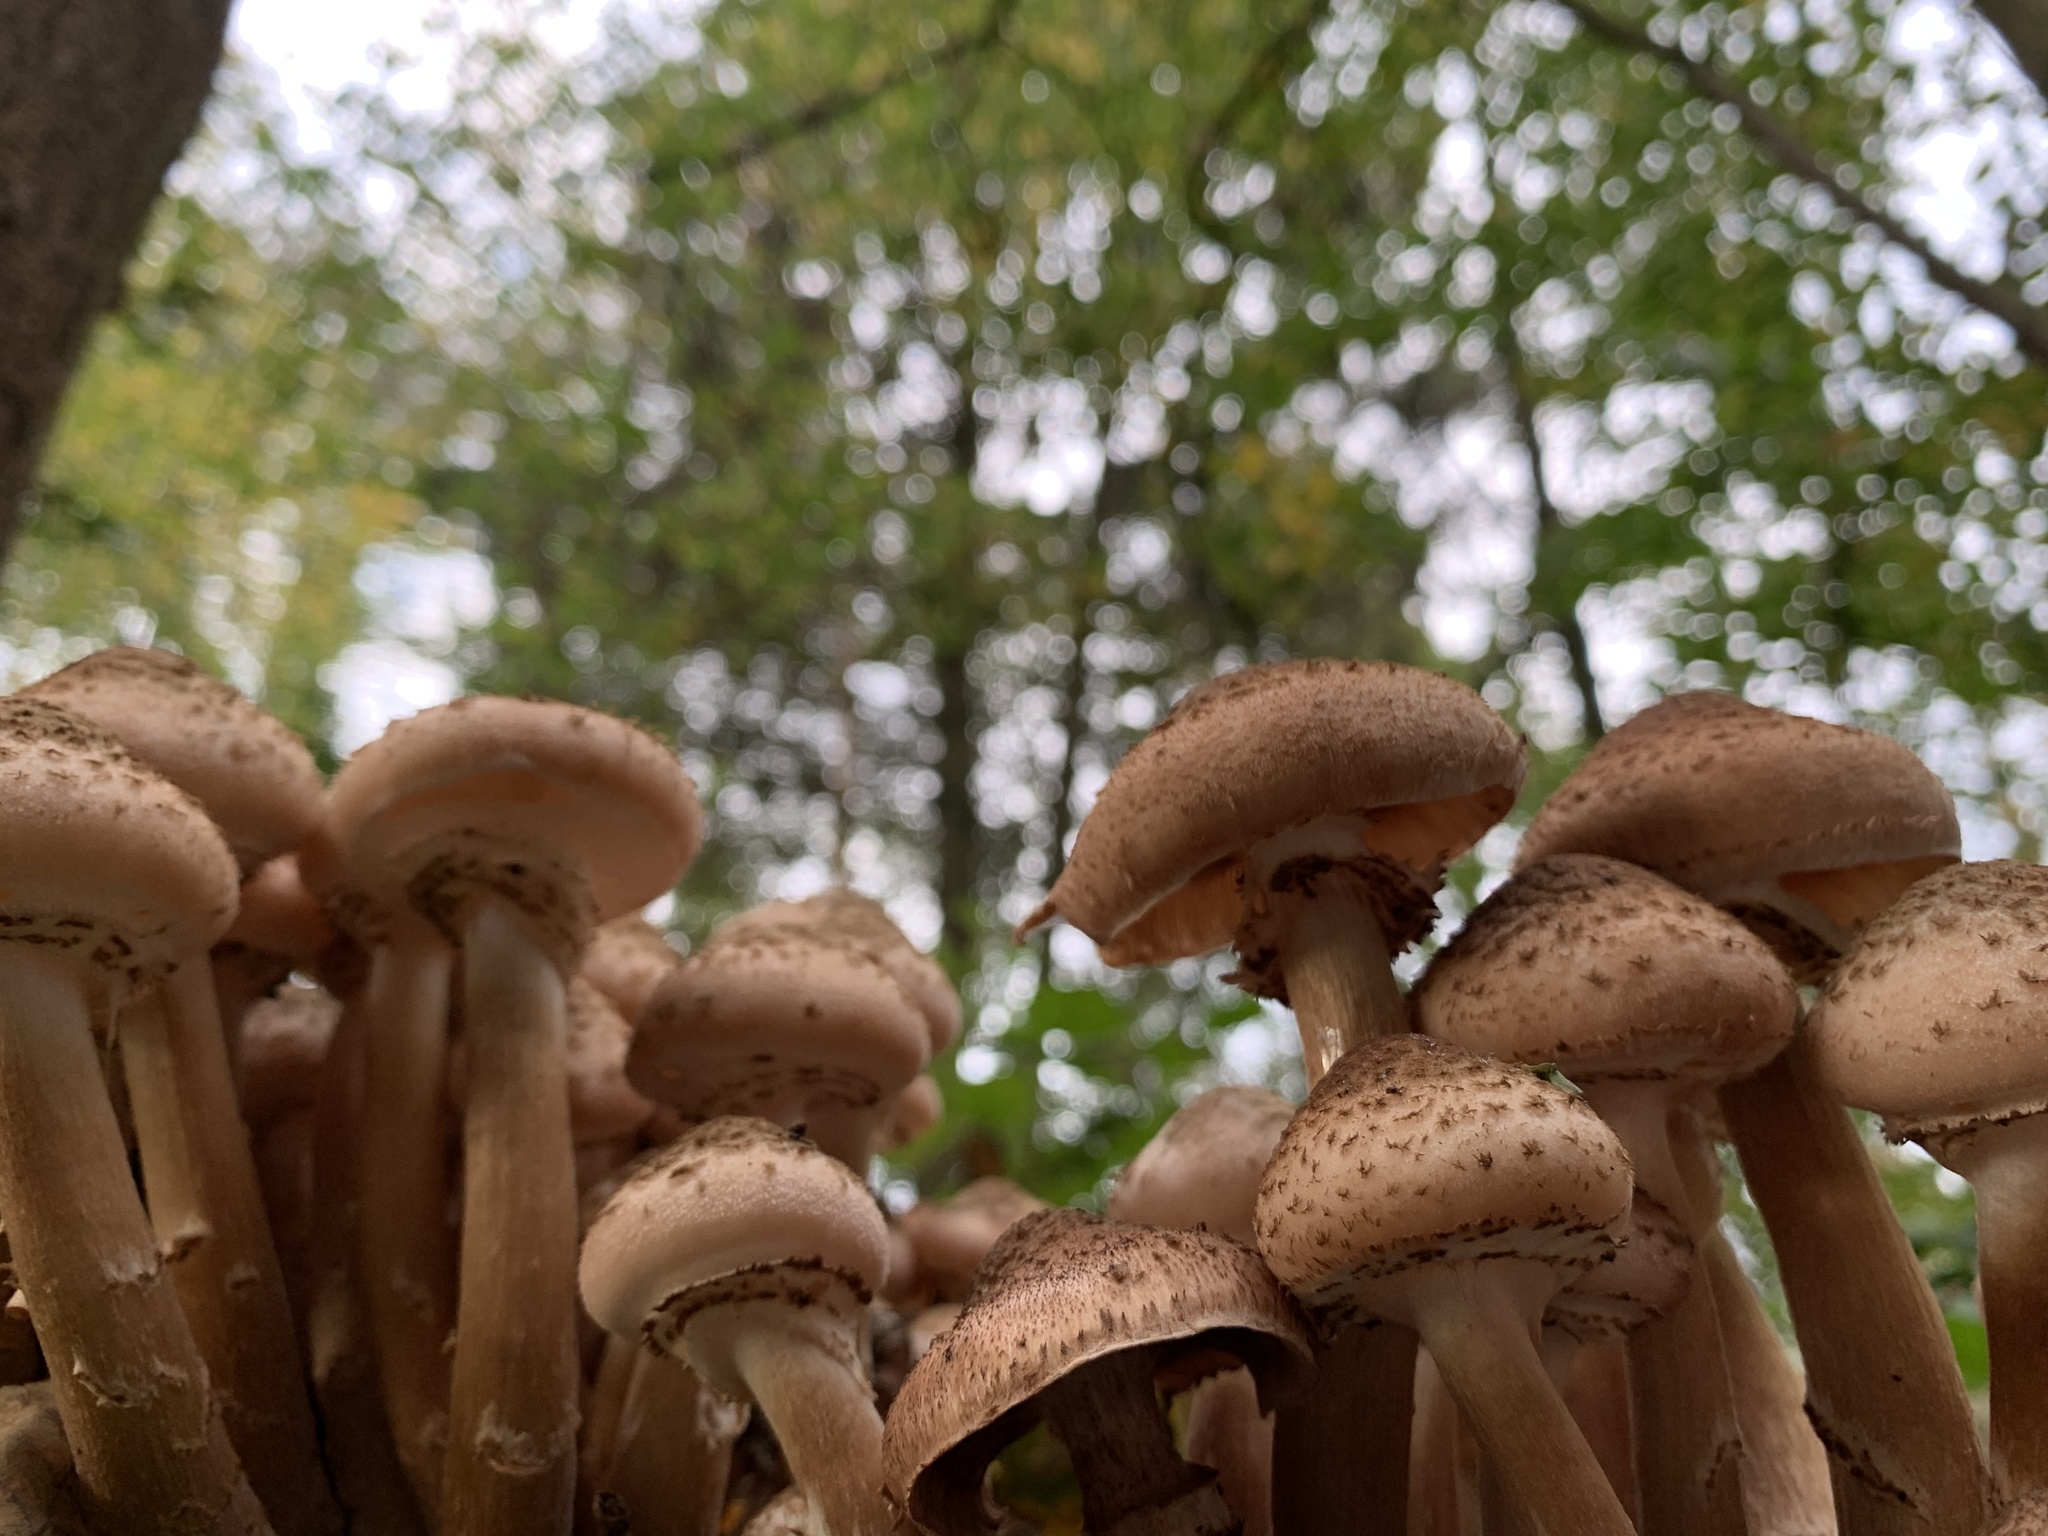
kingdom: Fungi
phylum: Basidiomycota
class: Agaricomycetes
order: Agaricales
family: Physalacriaceae
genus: Armillaria
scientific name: Armillaria mellea
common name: Honey fungus
